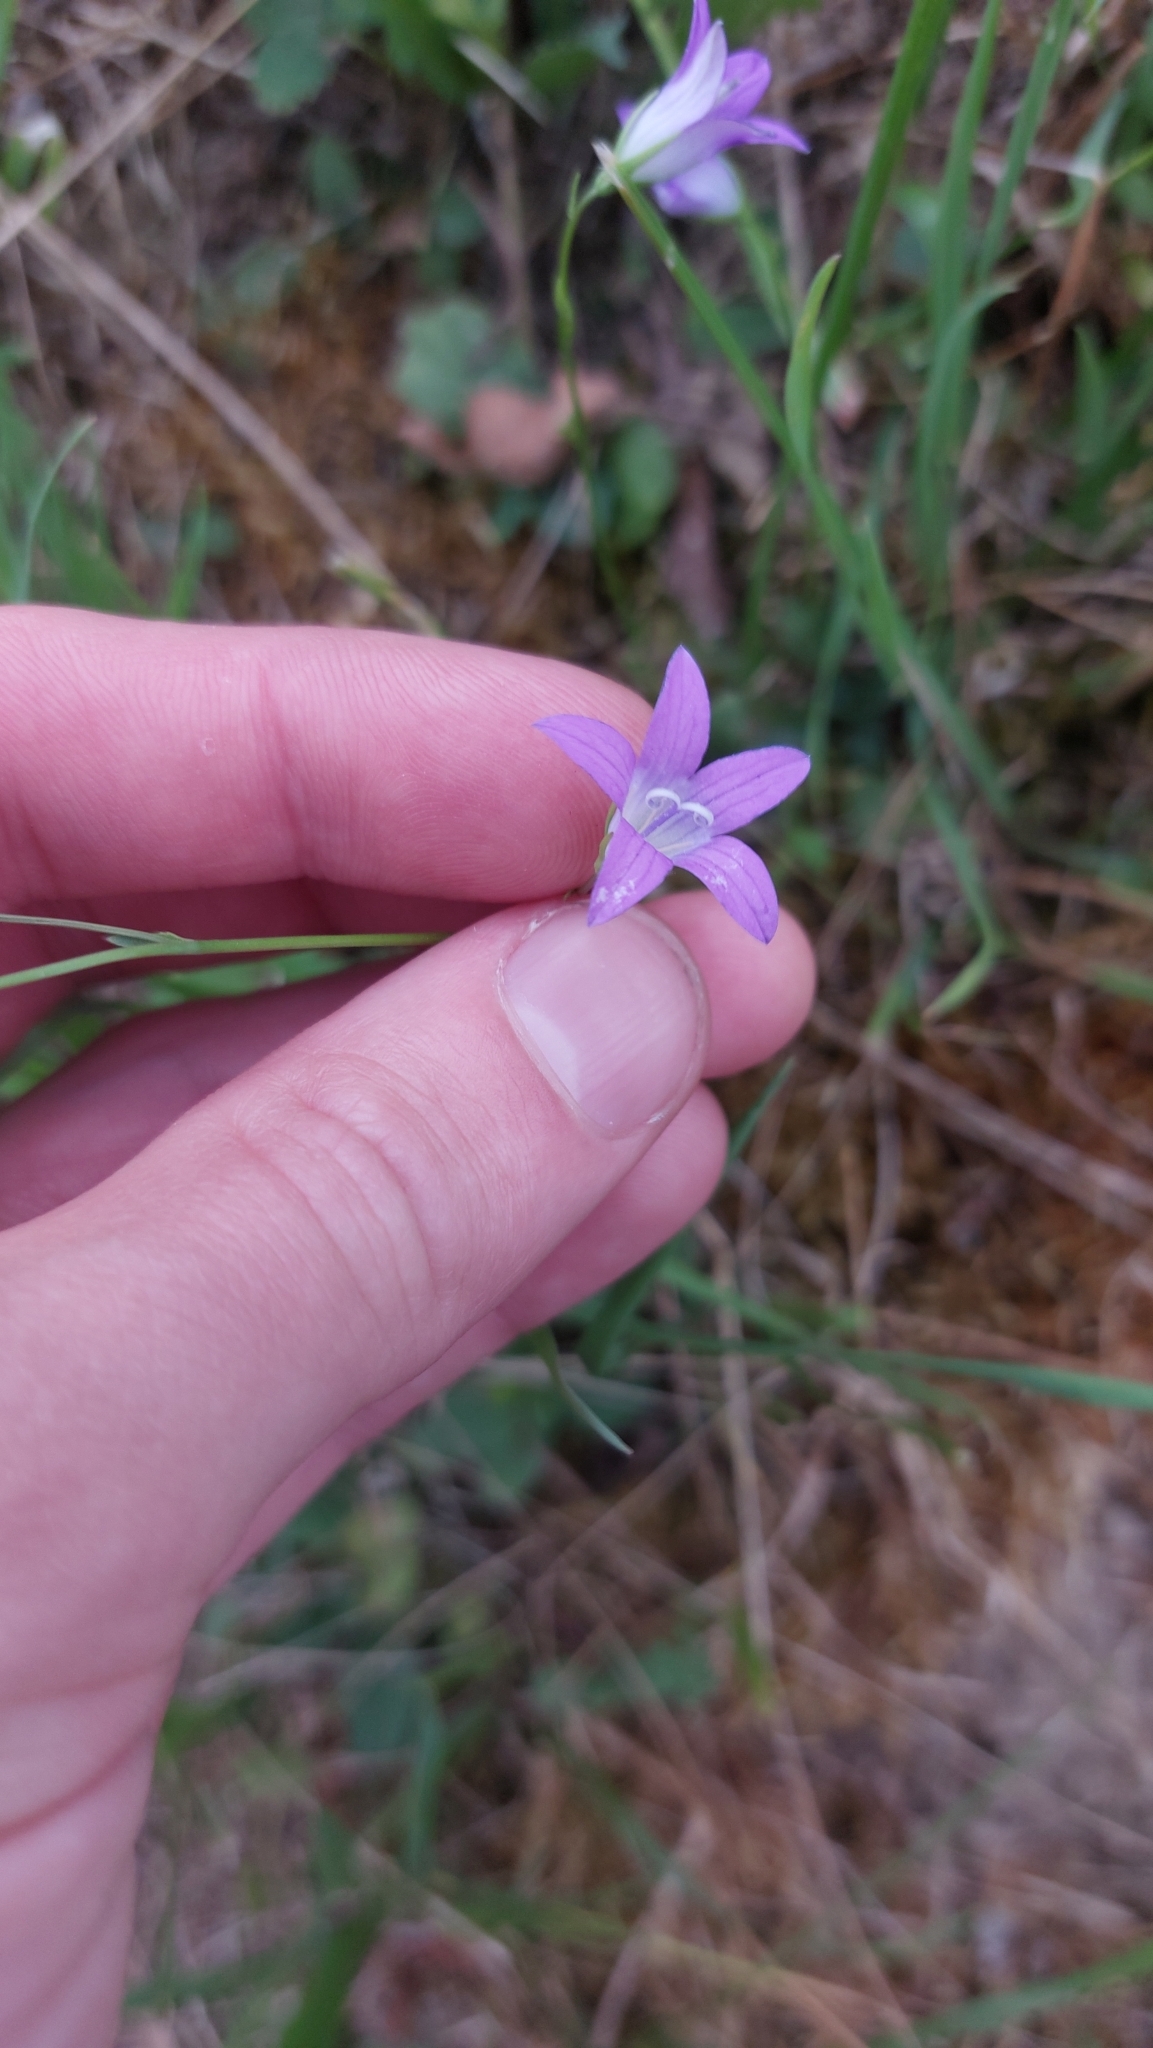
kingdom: Plantae
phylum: Tracheophyta
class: Magnoliopsida
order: Asterales
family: Campanulaceae
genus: Campanula
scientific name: Campanula patula
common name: Spreading bellflower
